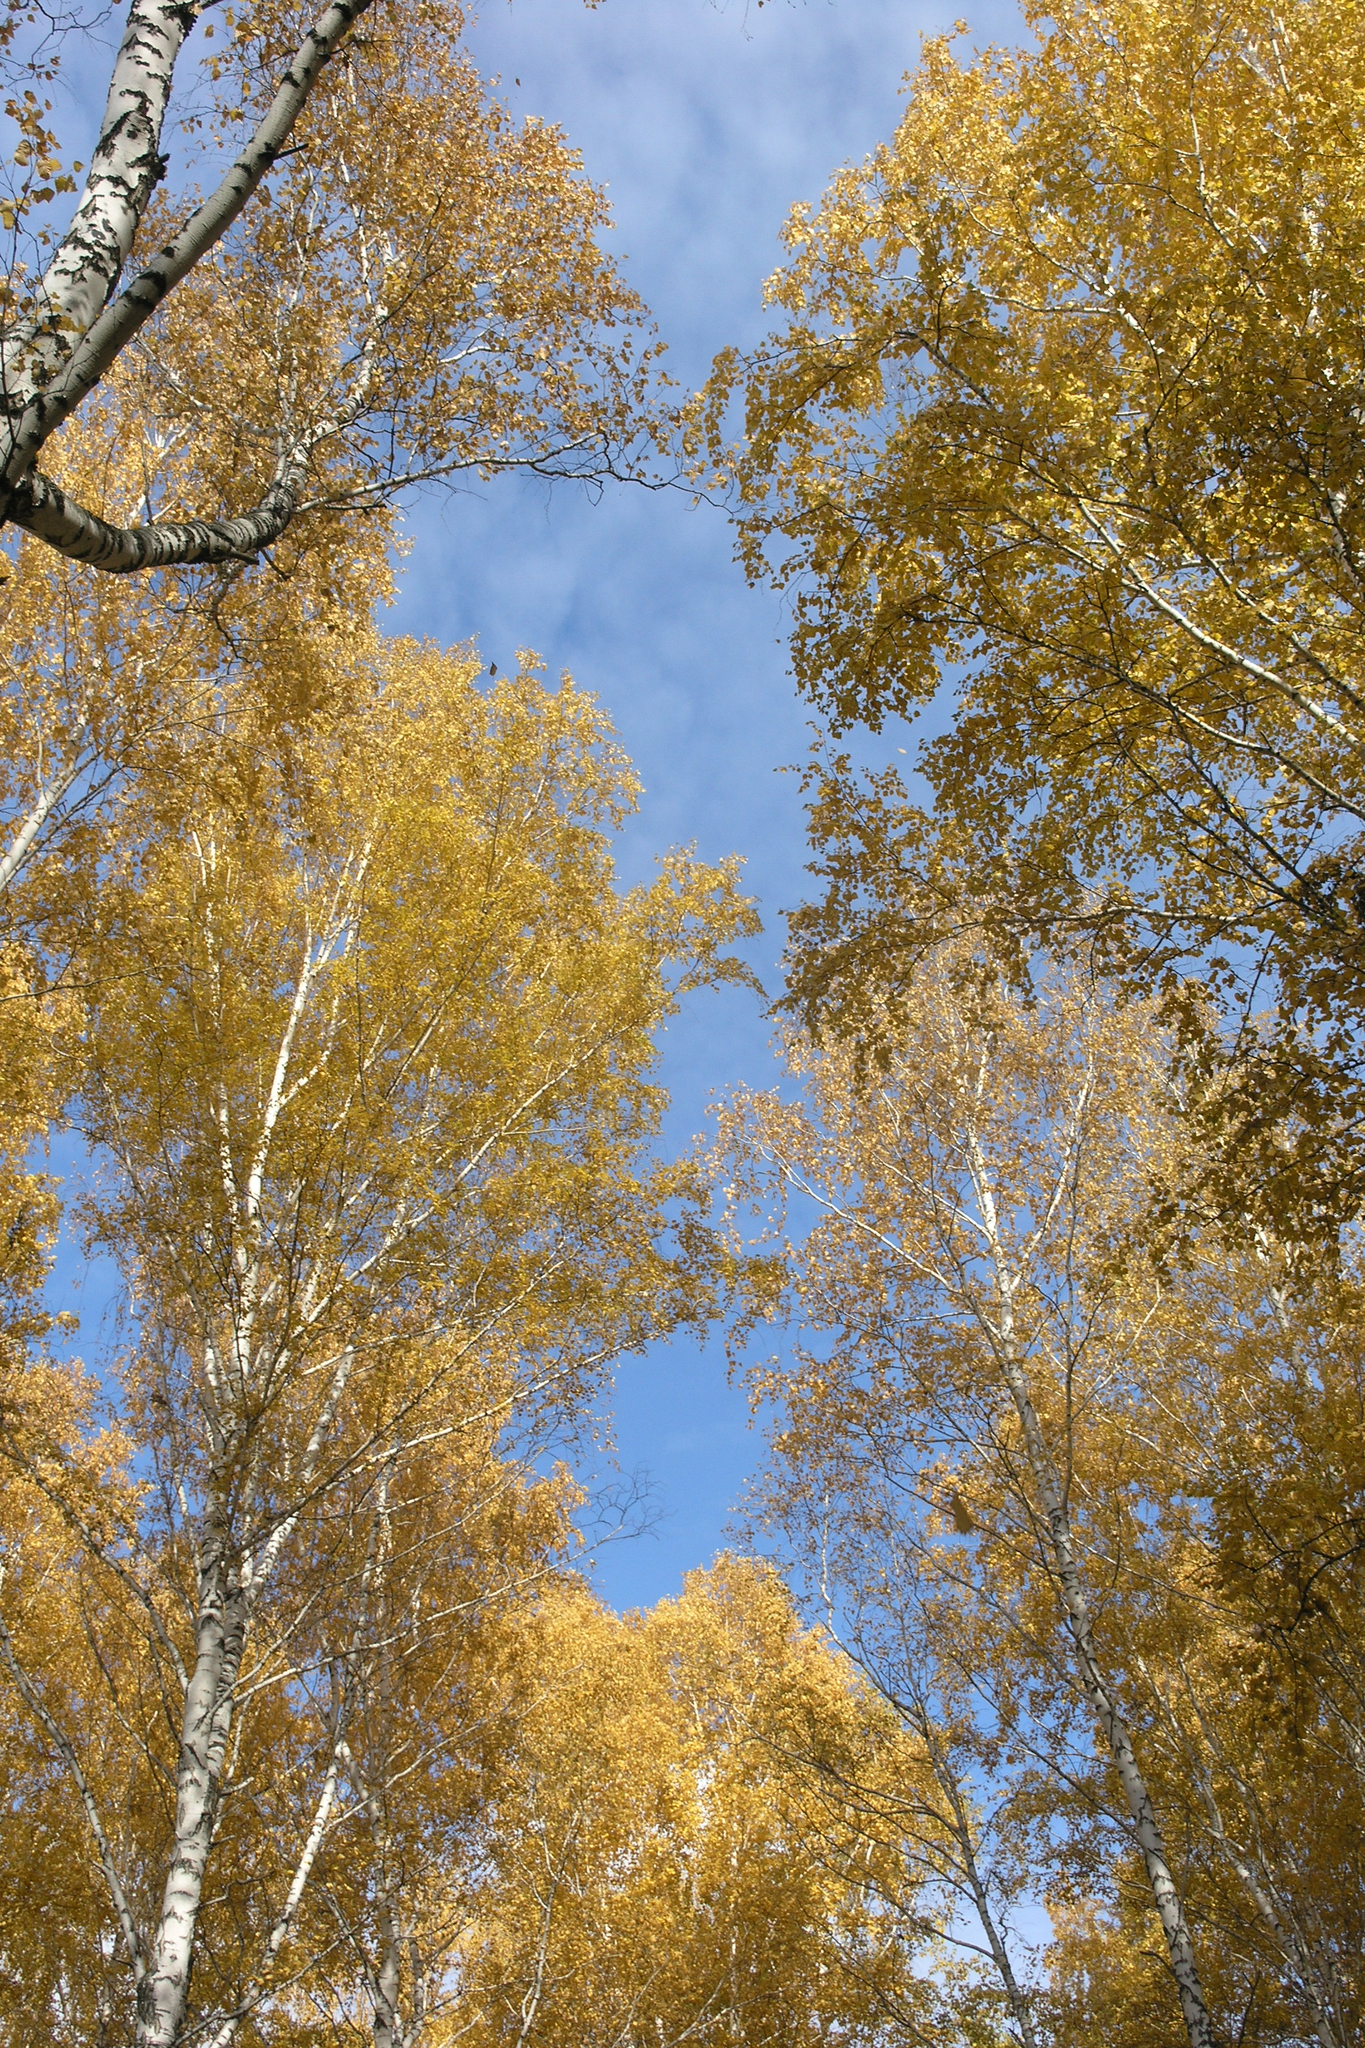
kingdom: Plantae
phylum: Tracheophyta
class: Magnoliopsida
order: Fagales
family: Betulaceae
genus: Betula
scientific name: Betula pendula
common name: Silver birch
